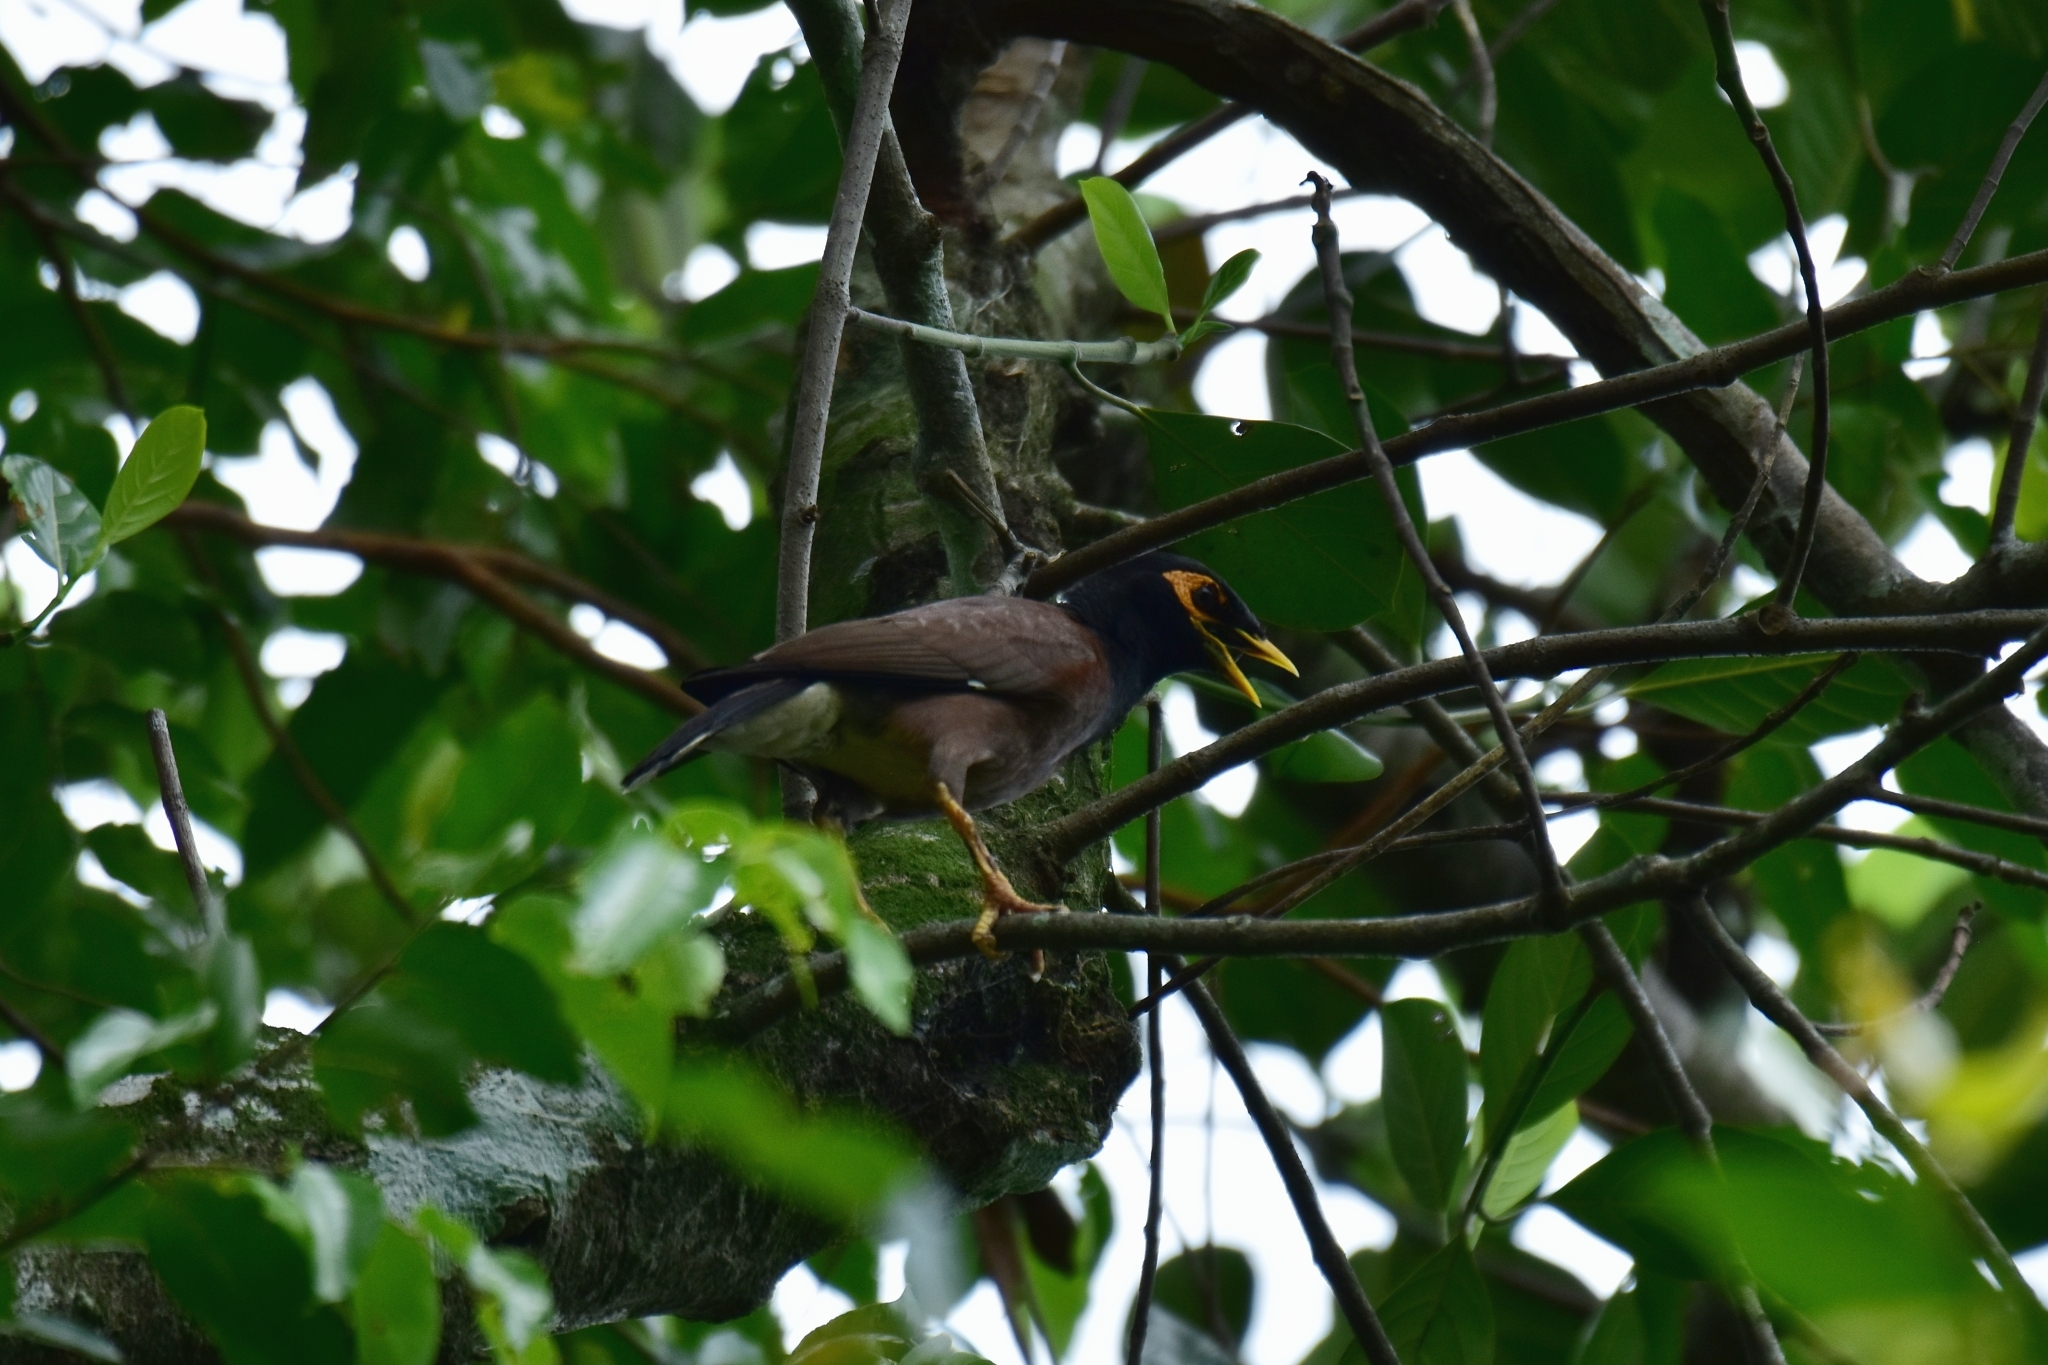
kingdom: Animalia
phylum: Chordata
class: Aves
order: Passeriformes
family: Sturnidae
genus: Acridotheres
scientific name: Acridotheres tristis
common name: Common myna
